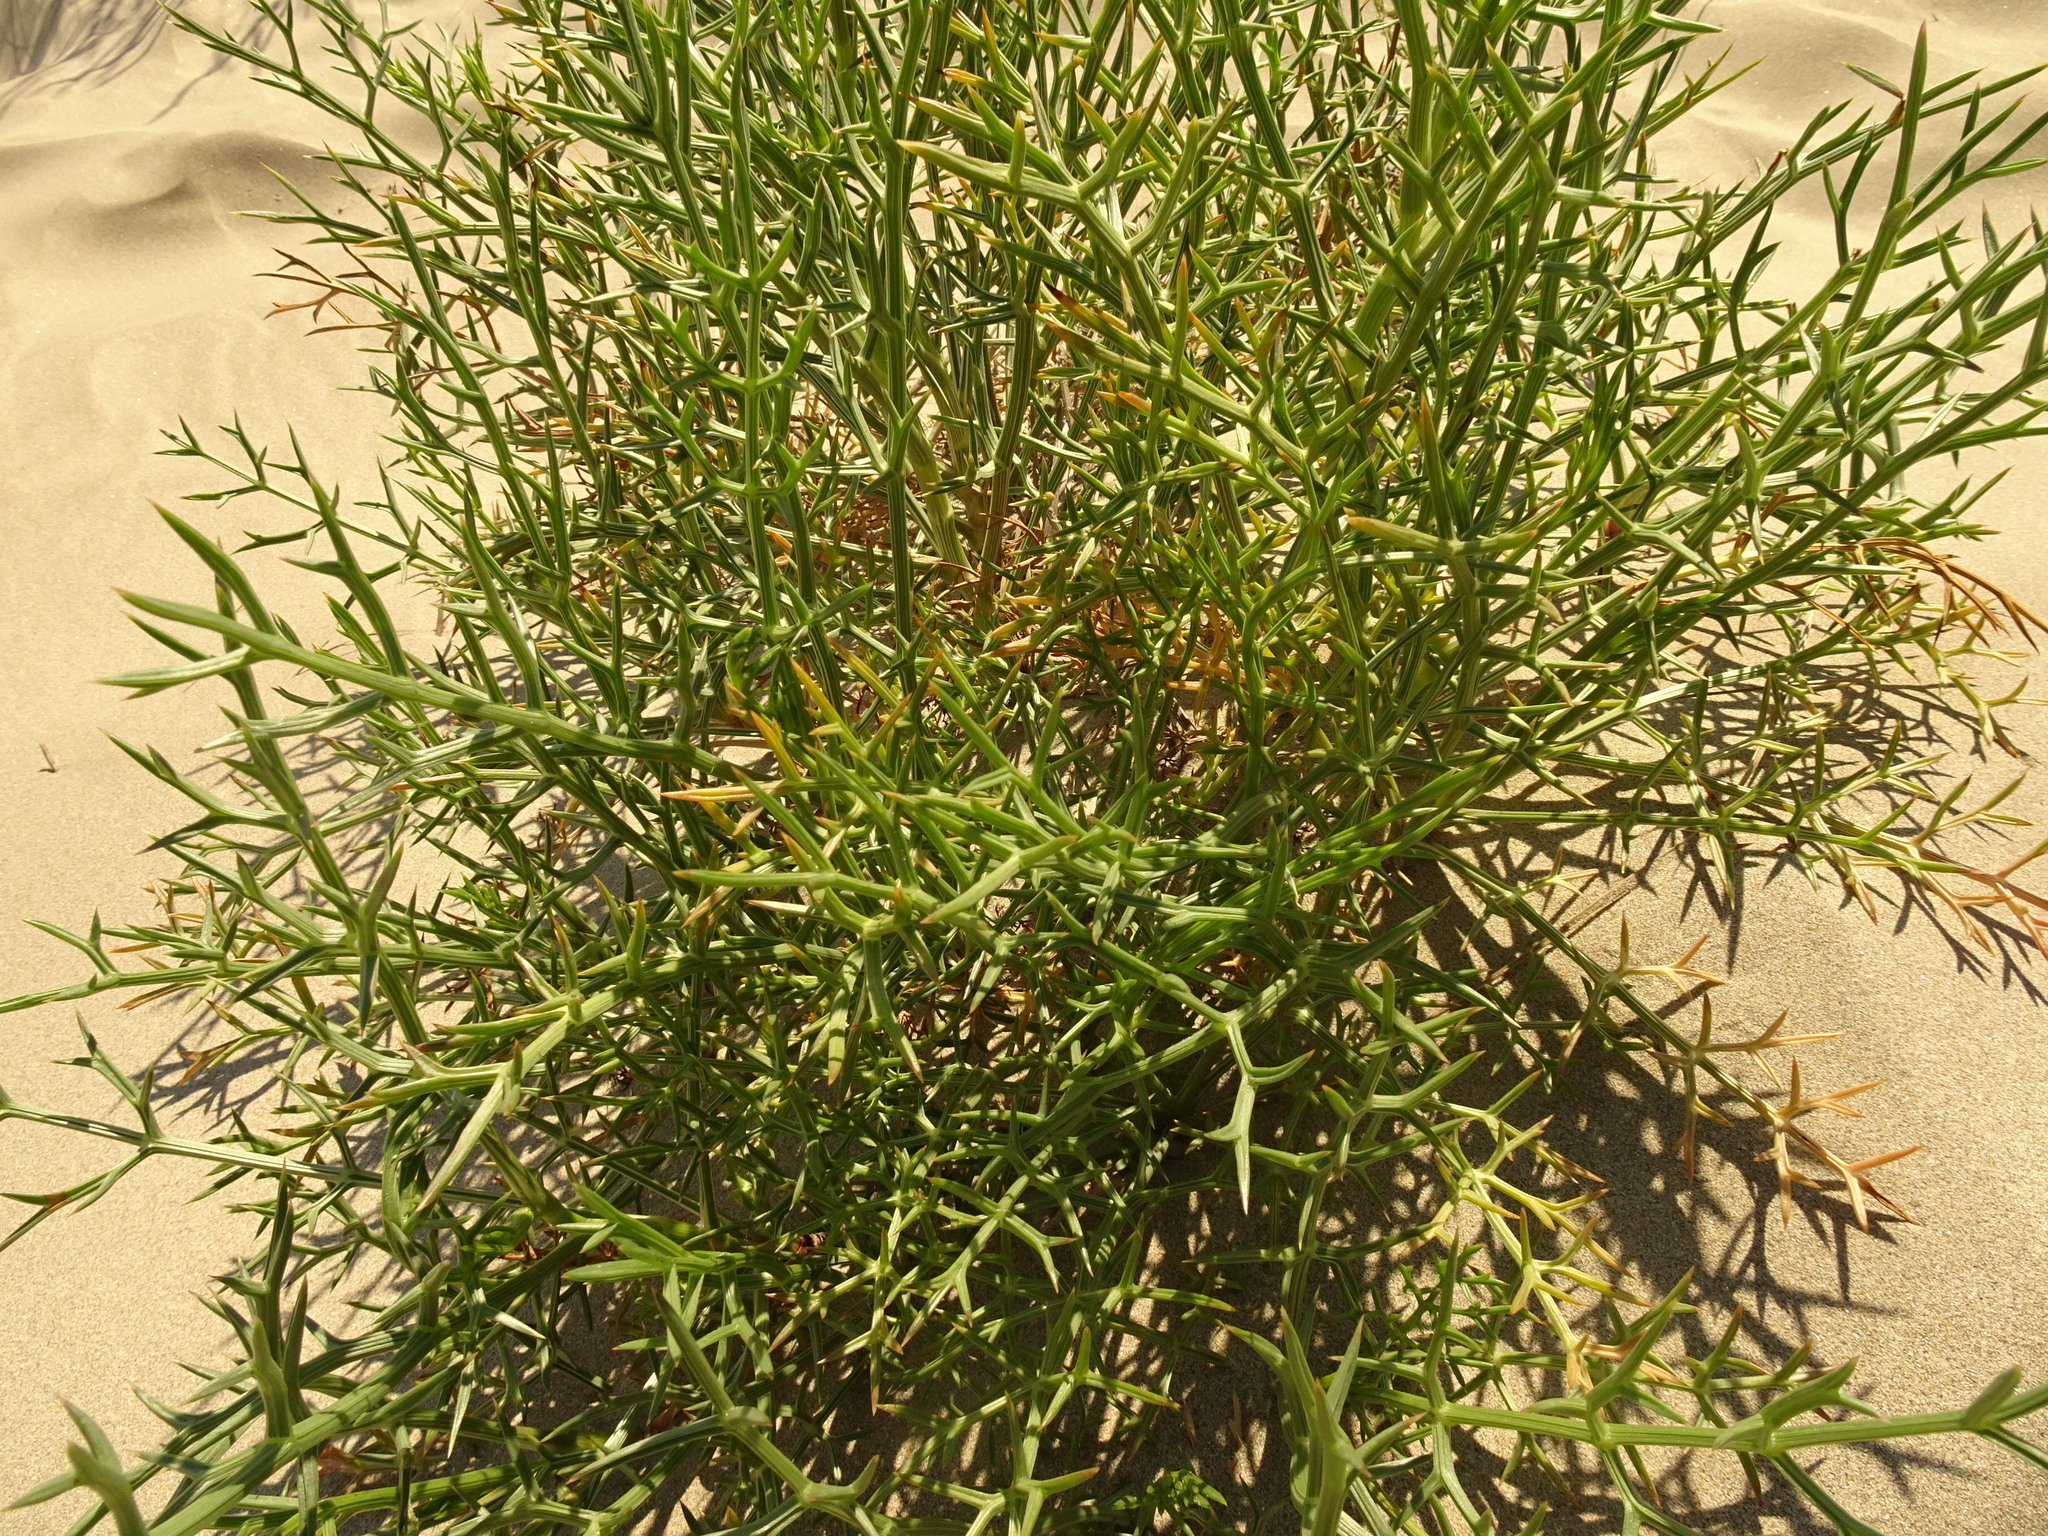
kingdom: Plantae
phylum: Tracheophyta
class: Magnoliopsida
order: Apiales
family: Apiaceae
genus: Echinophora
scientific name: Echinophora spinosa
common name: Prickly samphire
